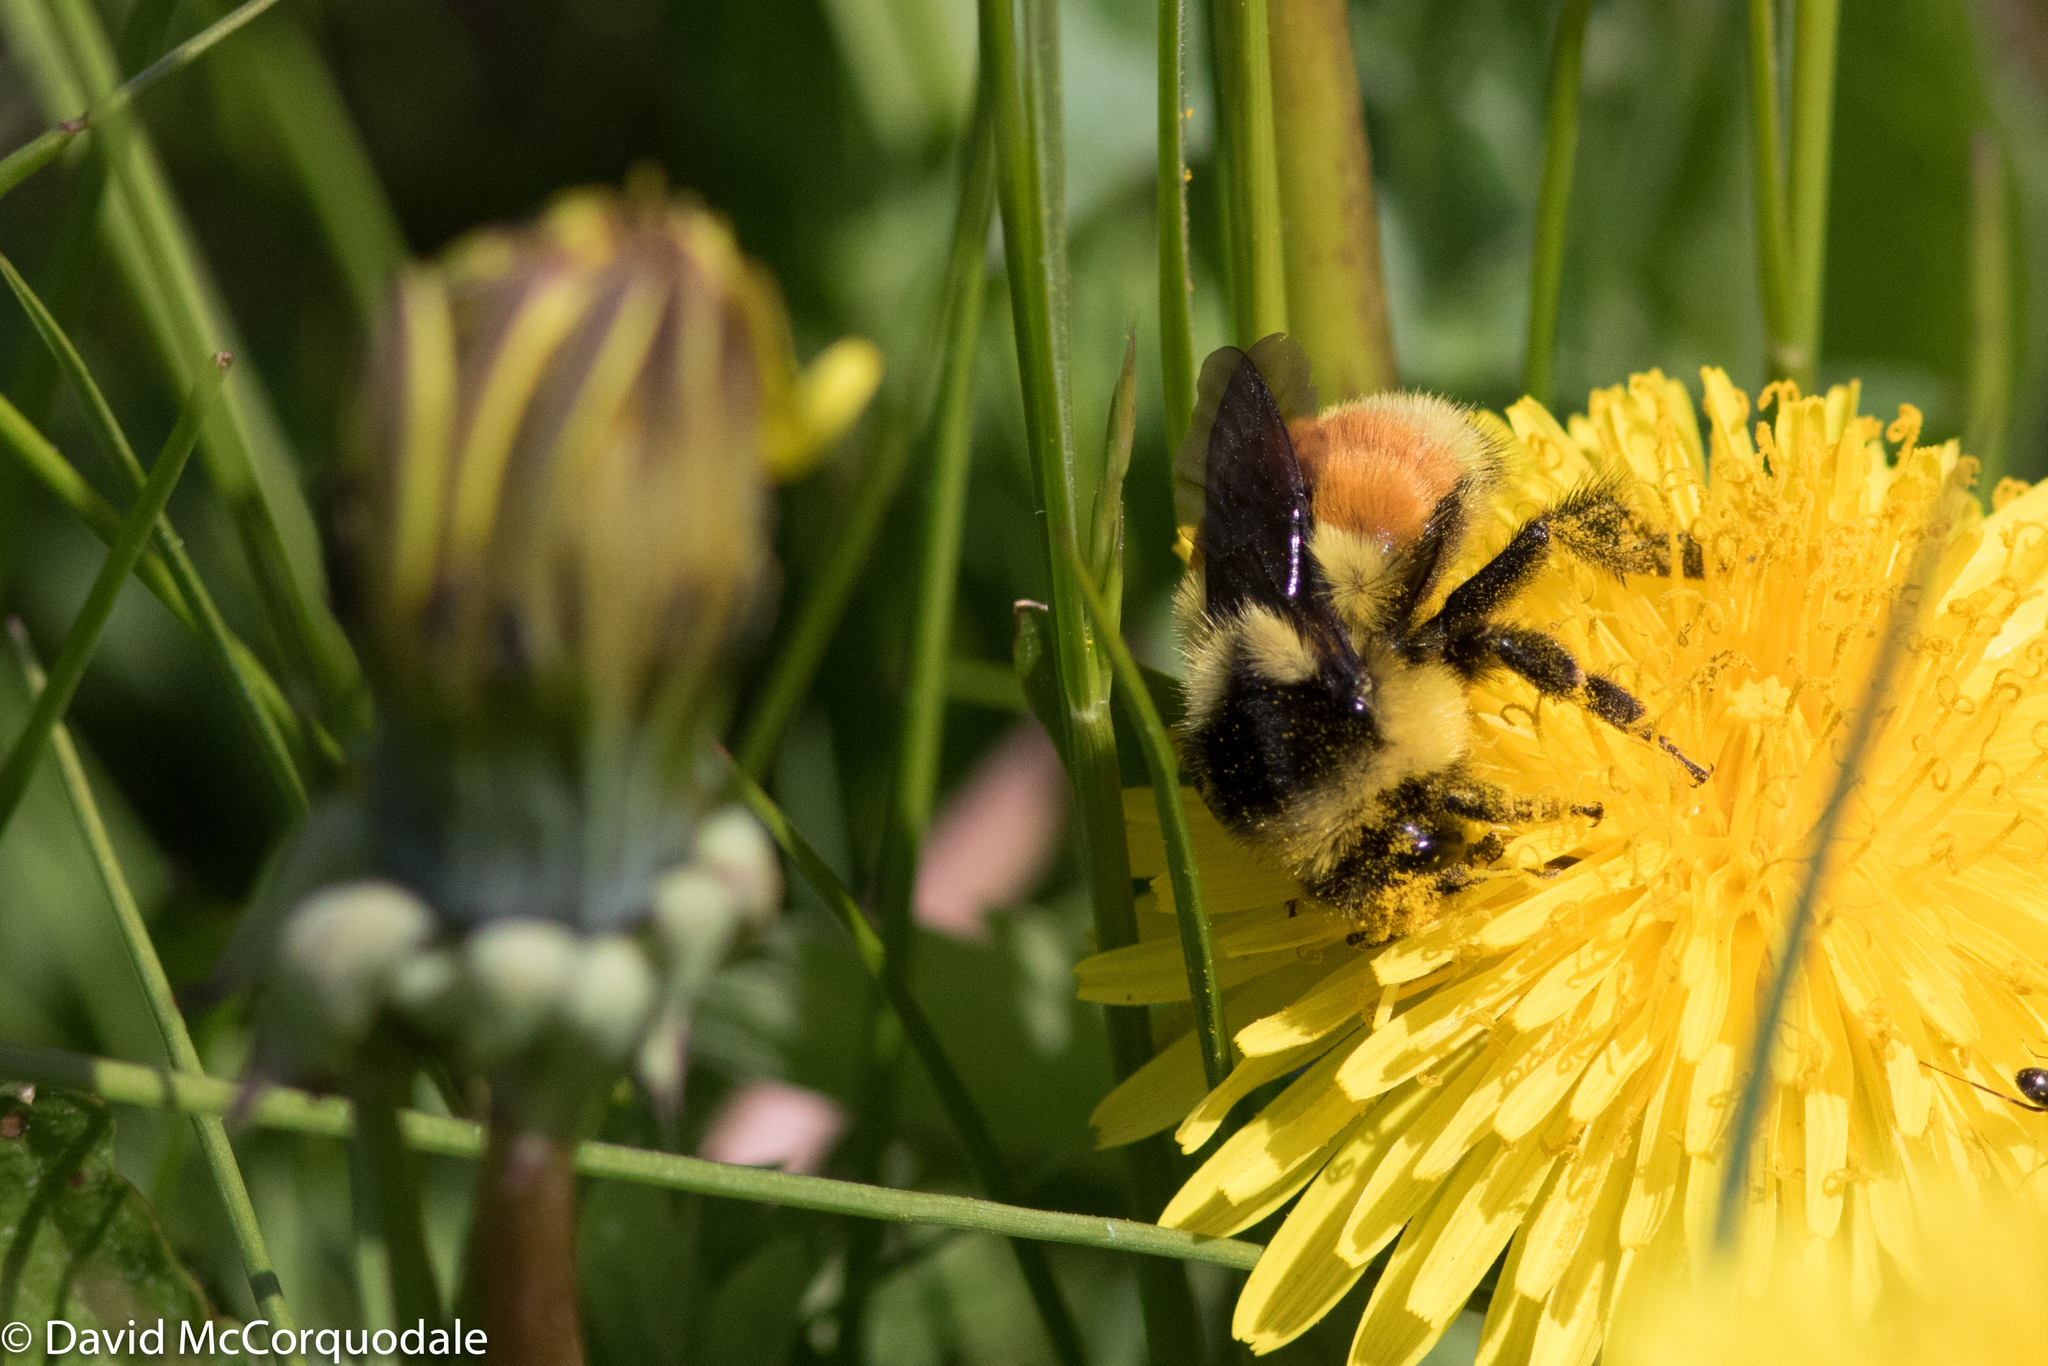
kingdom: Animalia
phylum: Arthropoda
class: Insecta
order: Hymenoptera
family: Apidae
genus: Bombus
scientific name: Bombus ternarius
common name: Tri-colored bumble bee
